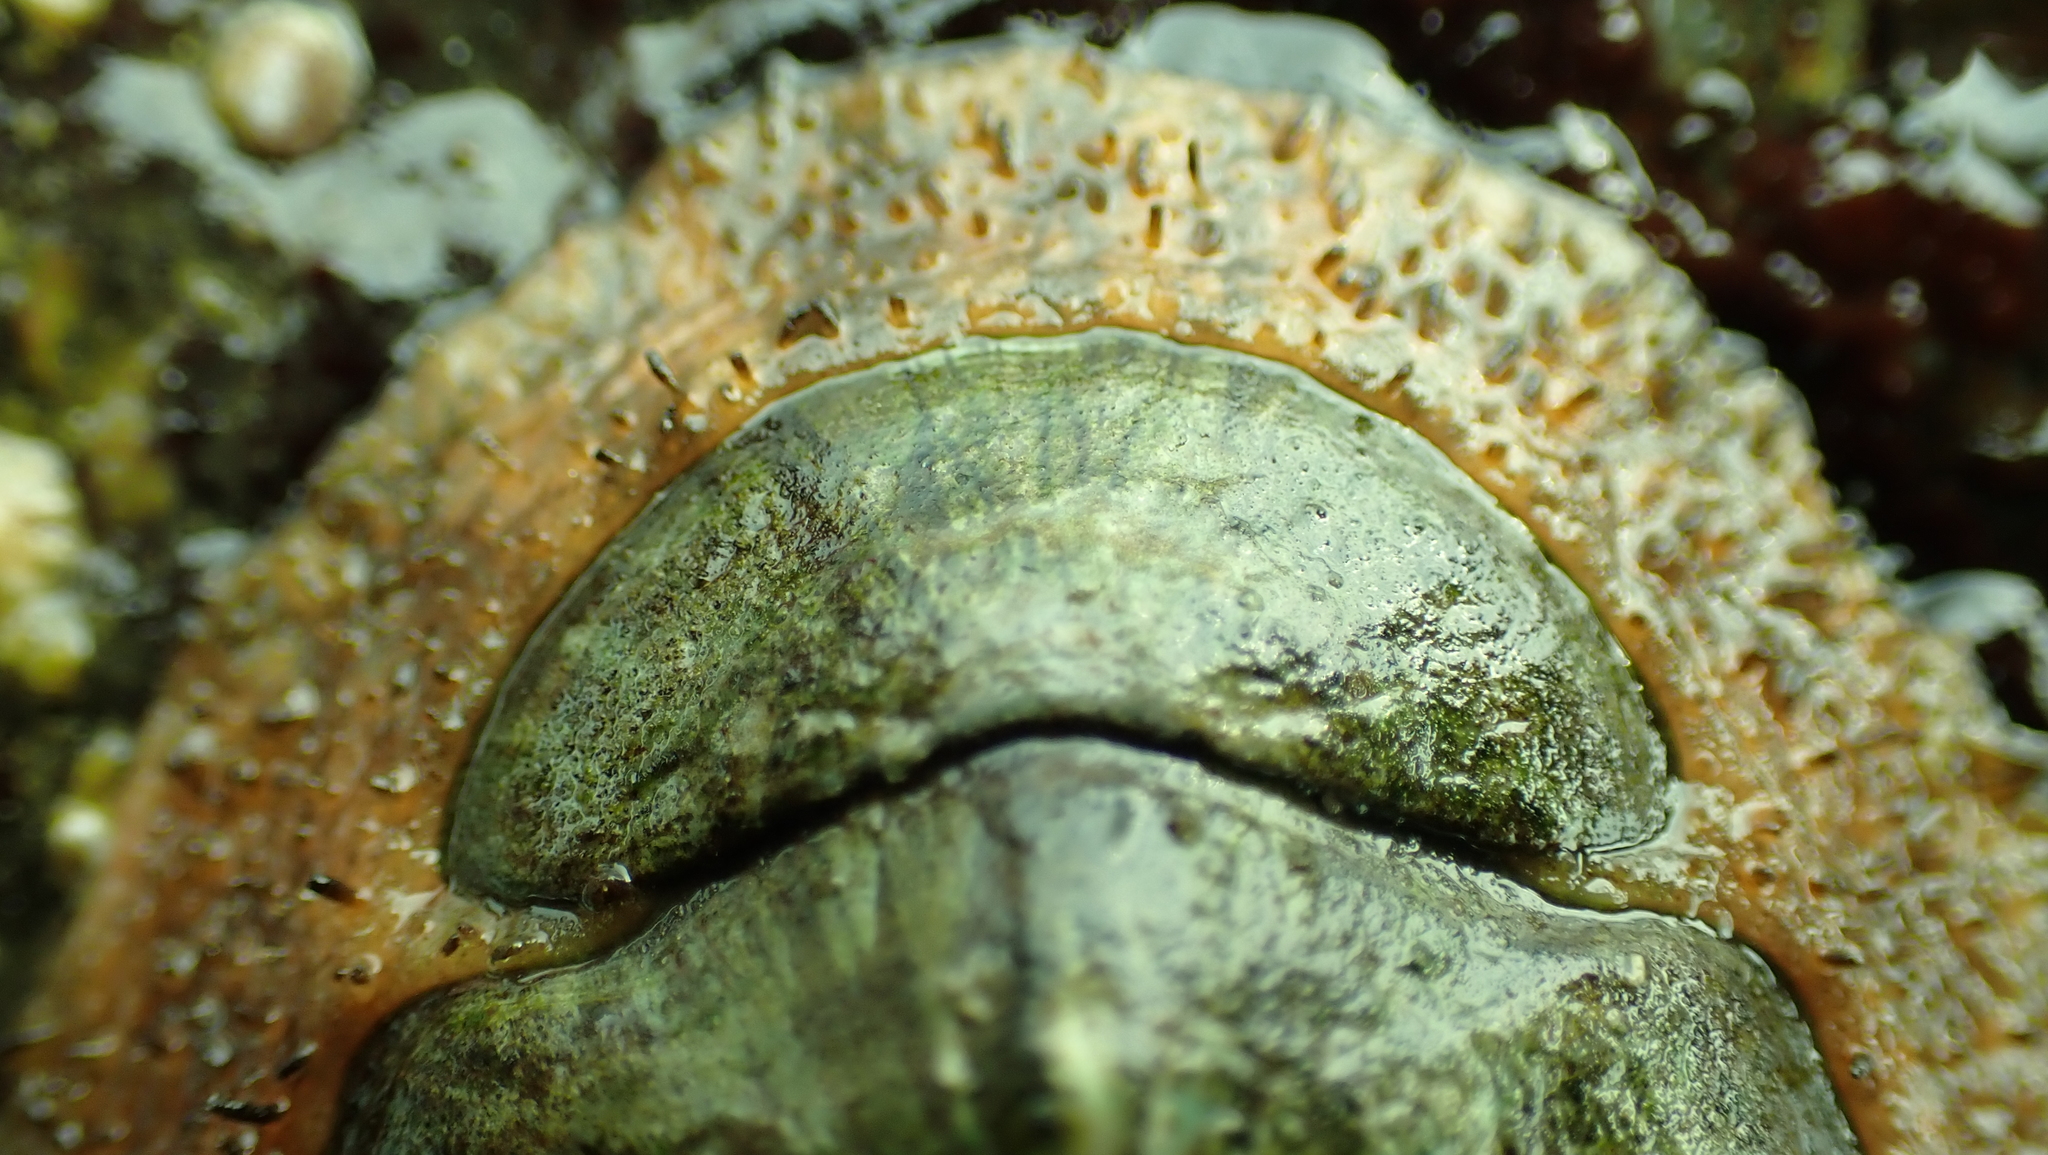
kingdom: Animalia
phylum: Mollusca
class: Polyplacophora
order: Chitonida
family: Mopaliidae
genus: Mopalia
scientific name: Mopalia lignosa
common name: Woody chiton
